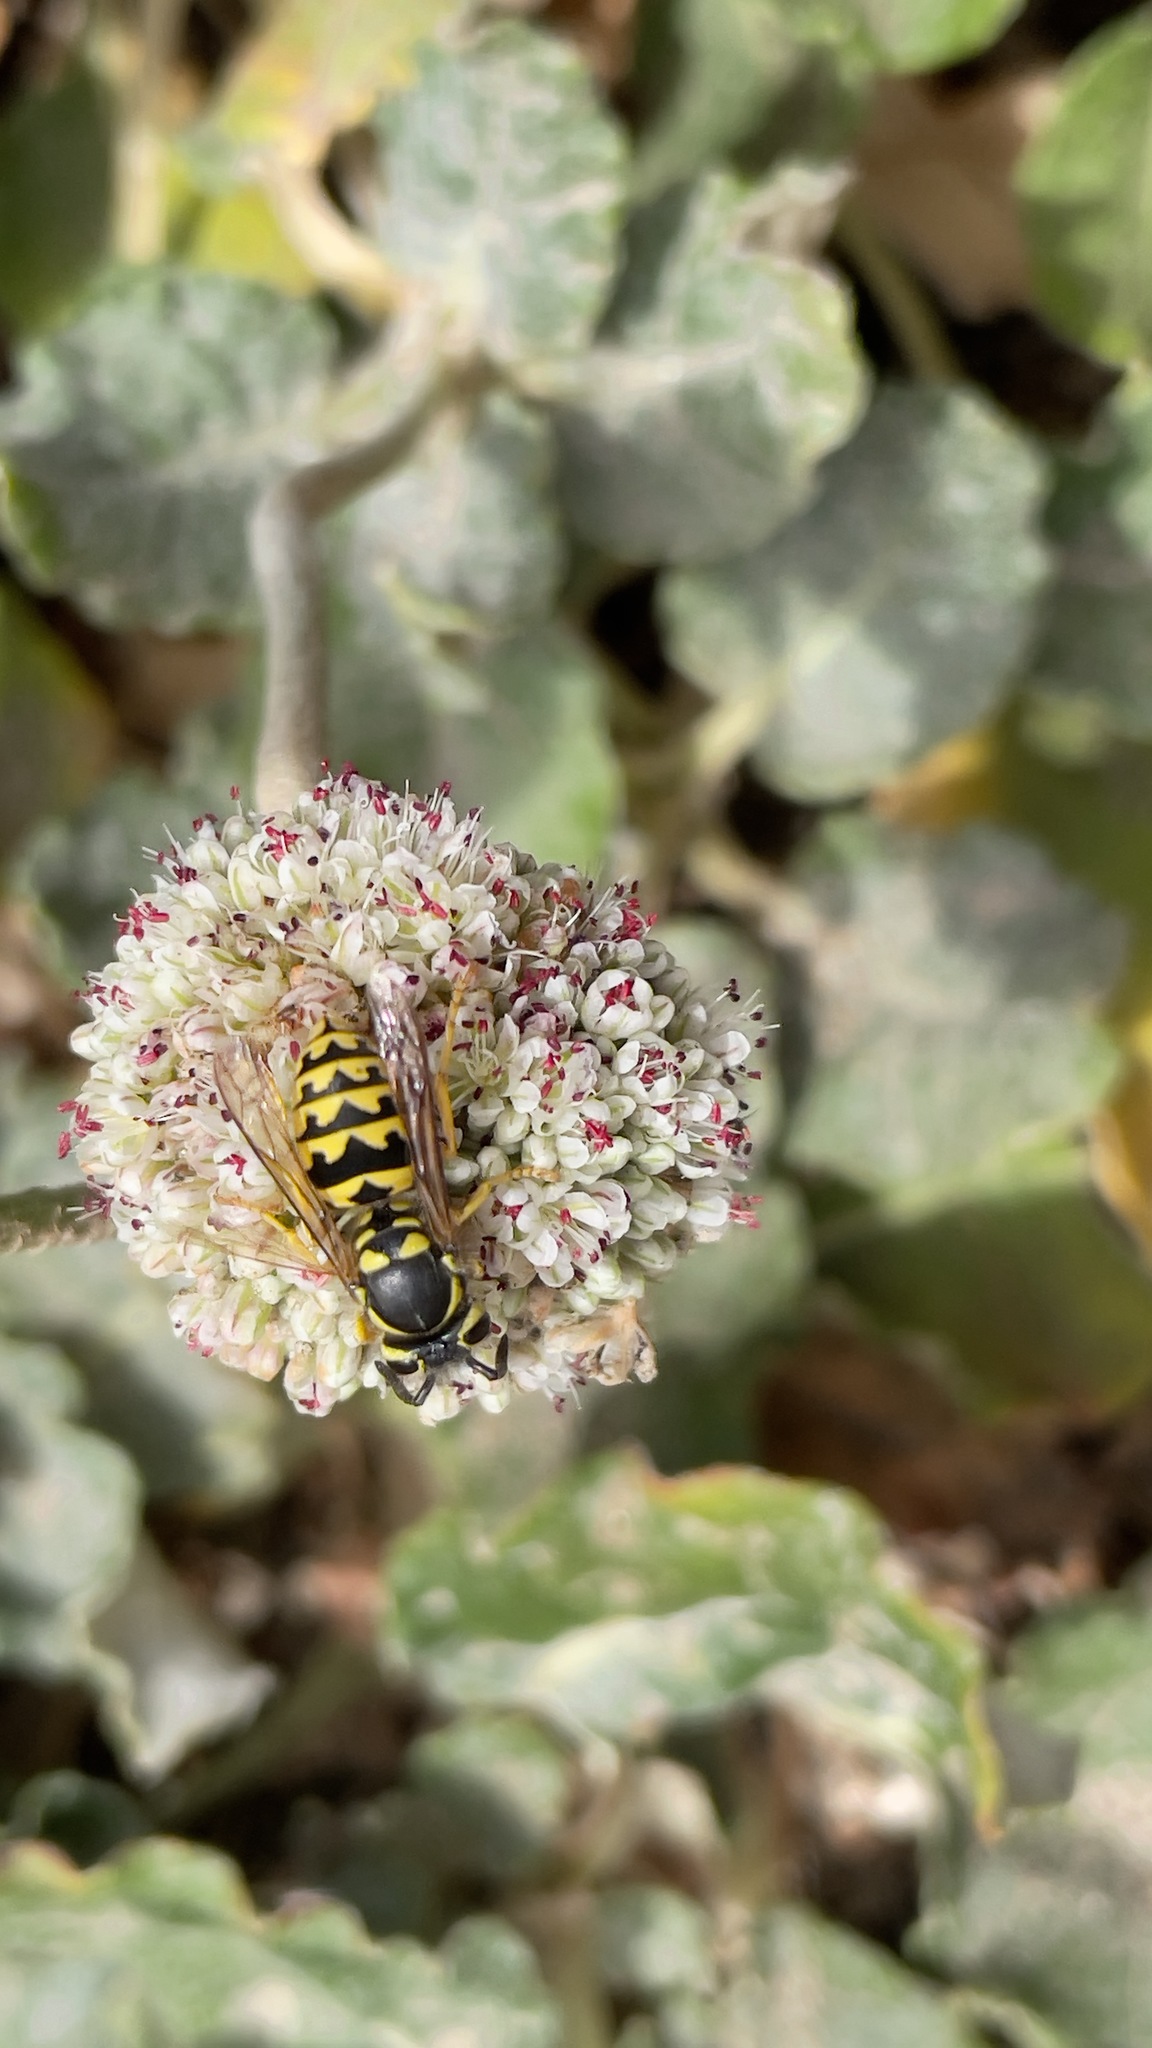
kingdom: Animalia
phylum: Arthropoda
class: Insecta
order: Hymenoptera
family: Vespidae
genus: Vespula
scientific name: Vespula pensylvanica
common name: Western yellowjacket
